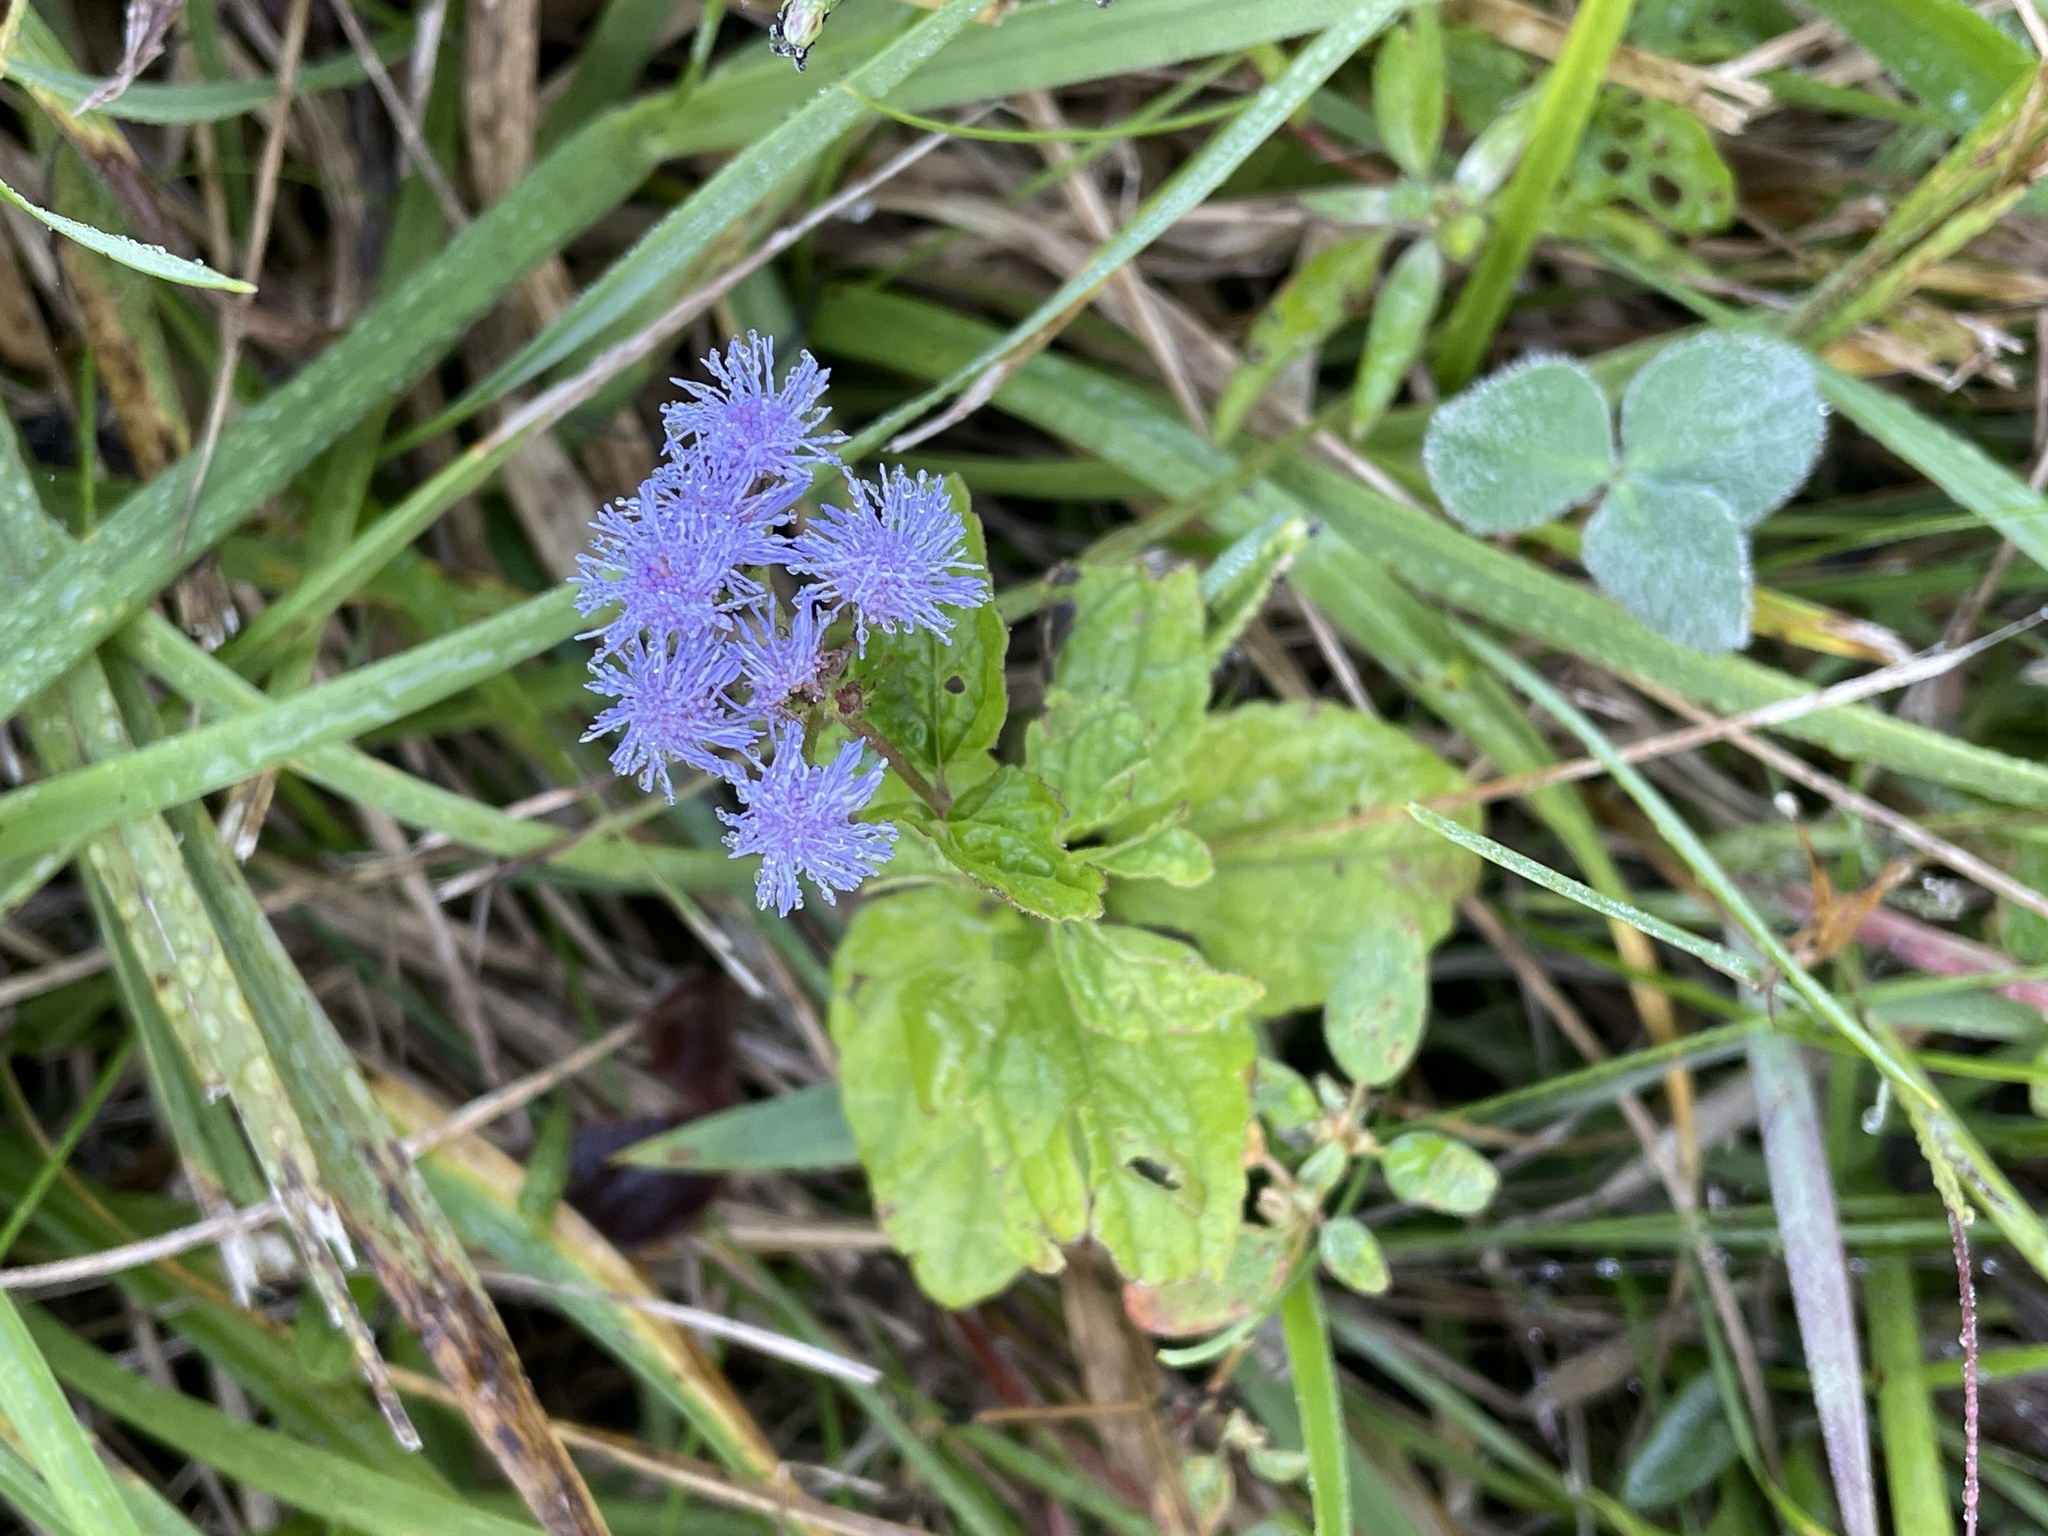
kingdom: Plantae
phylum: Tracheophyta
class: Magnoliopsida
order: Asterales
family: Asteraceae
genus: Conoclinium
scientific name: Conoclinium coelestinum
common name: Blue mistflower
